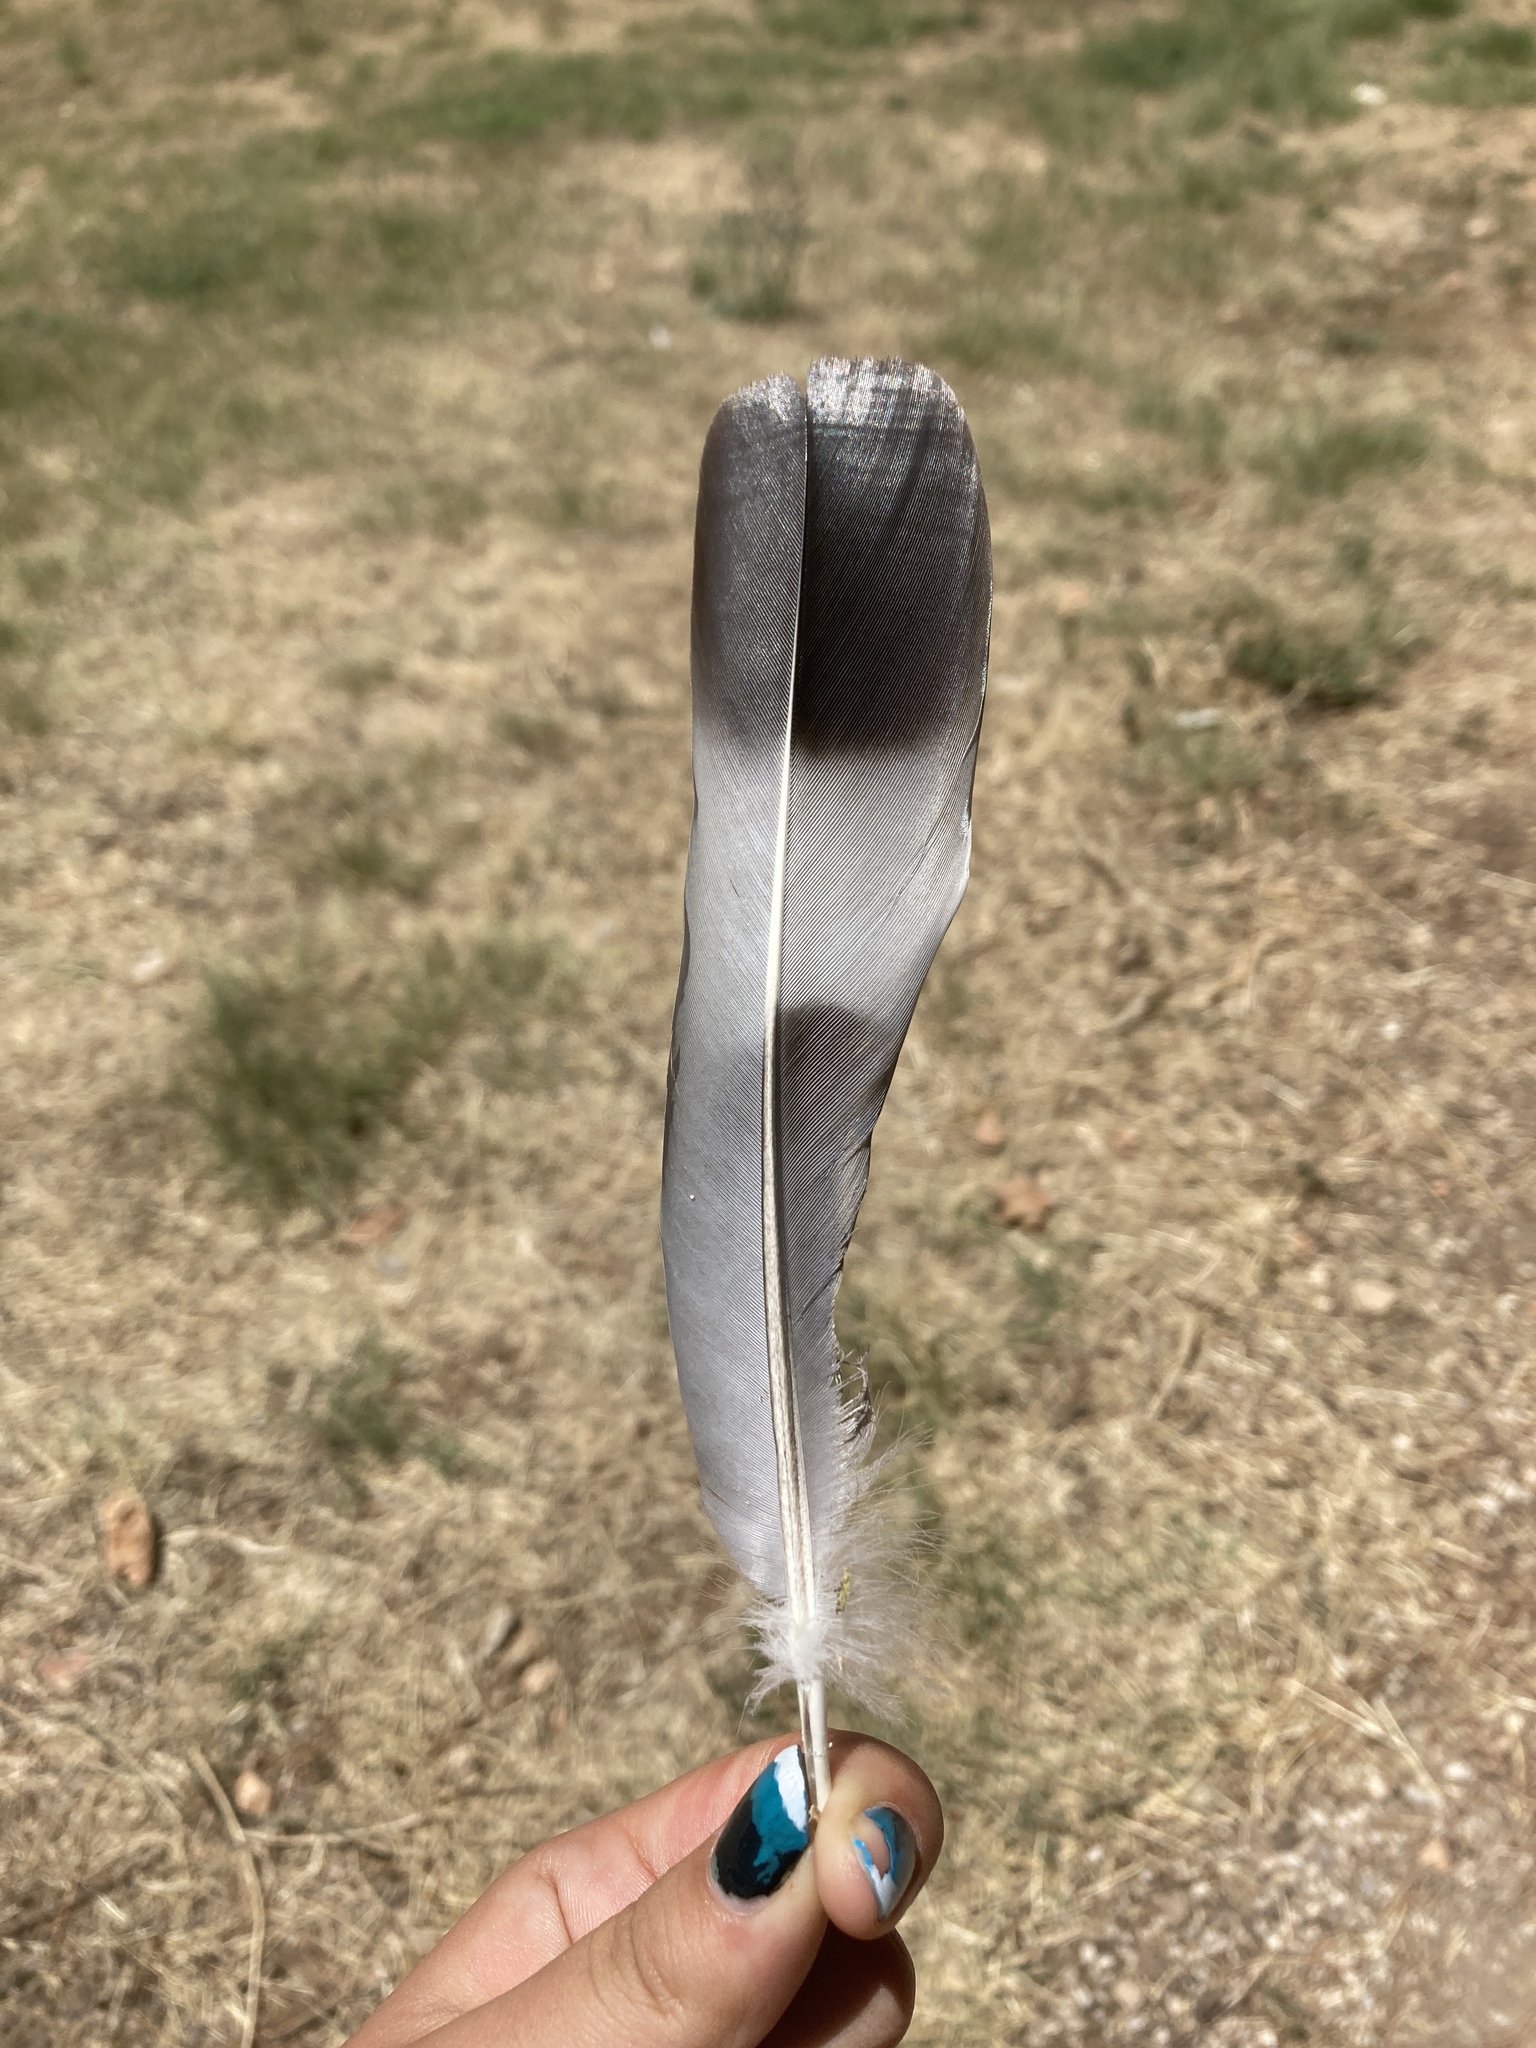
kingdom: Animalia
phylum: Chordata
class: Aves
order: Columbiformes
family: Columbidae
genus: Columba
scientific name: Columba palumbus
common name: Common wood pigeon
